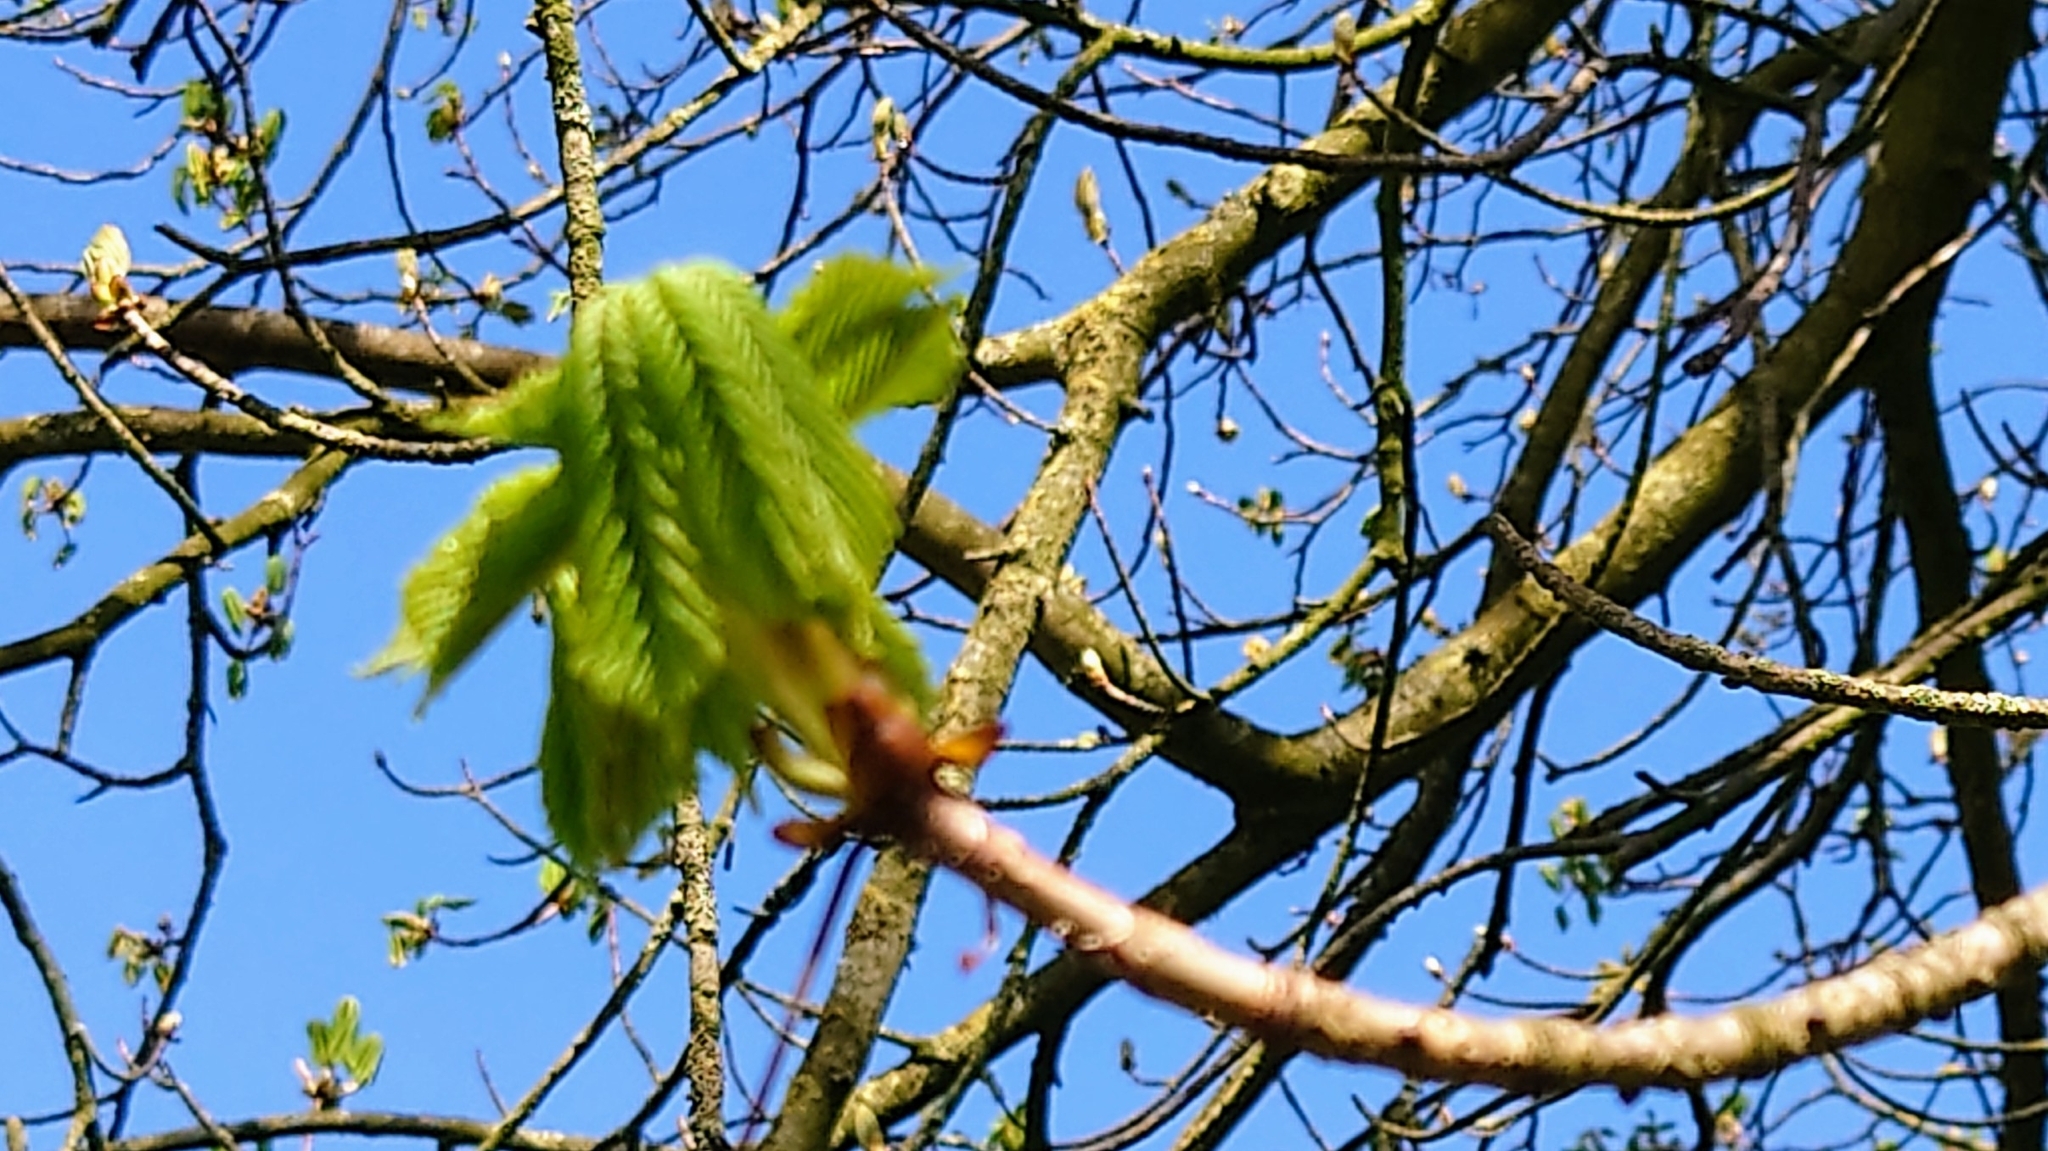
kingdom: Plantae
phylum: Tracheophyta
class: Magnoliopsida
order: Sapindales
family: Sapindaceae
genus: Aesculus
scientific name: Aesculus hippocastanum
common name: Horse-chestnut
